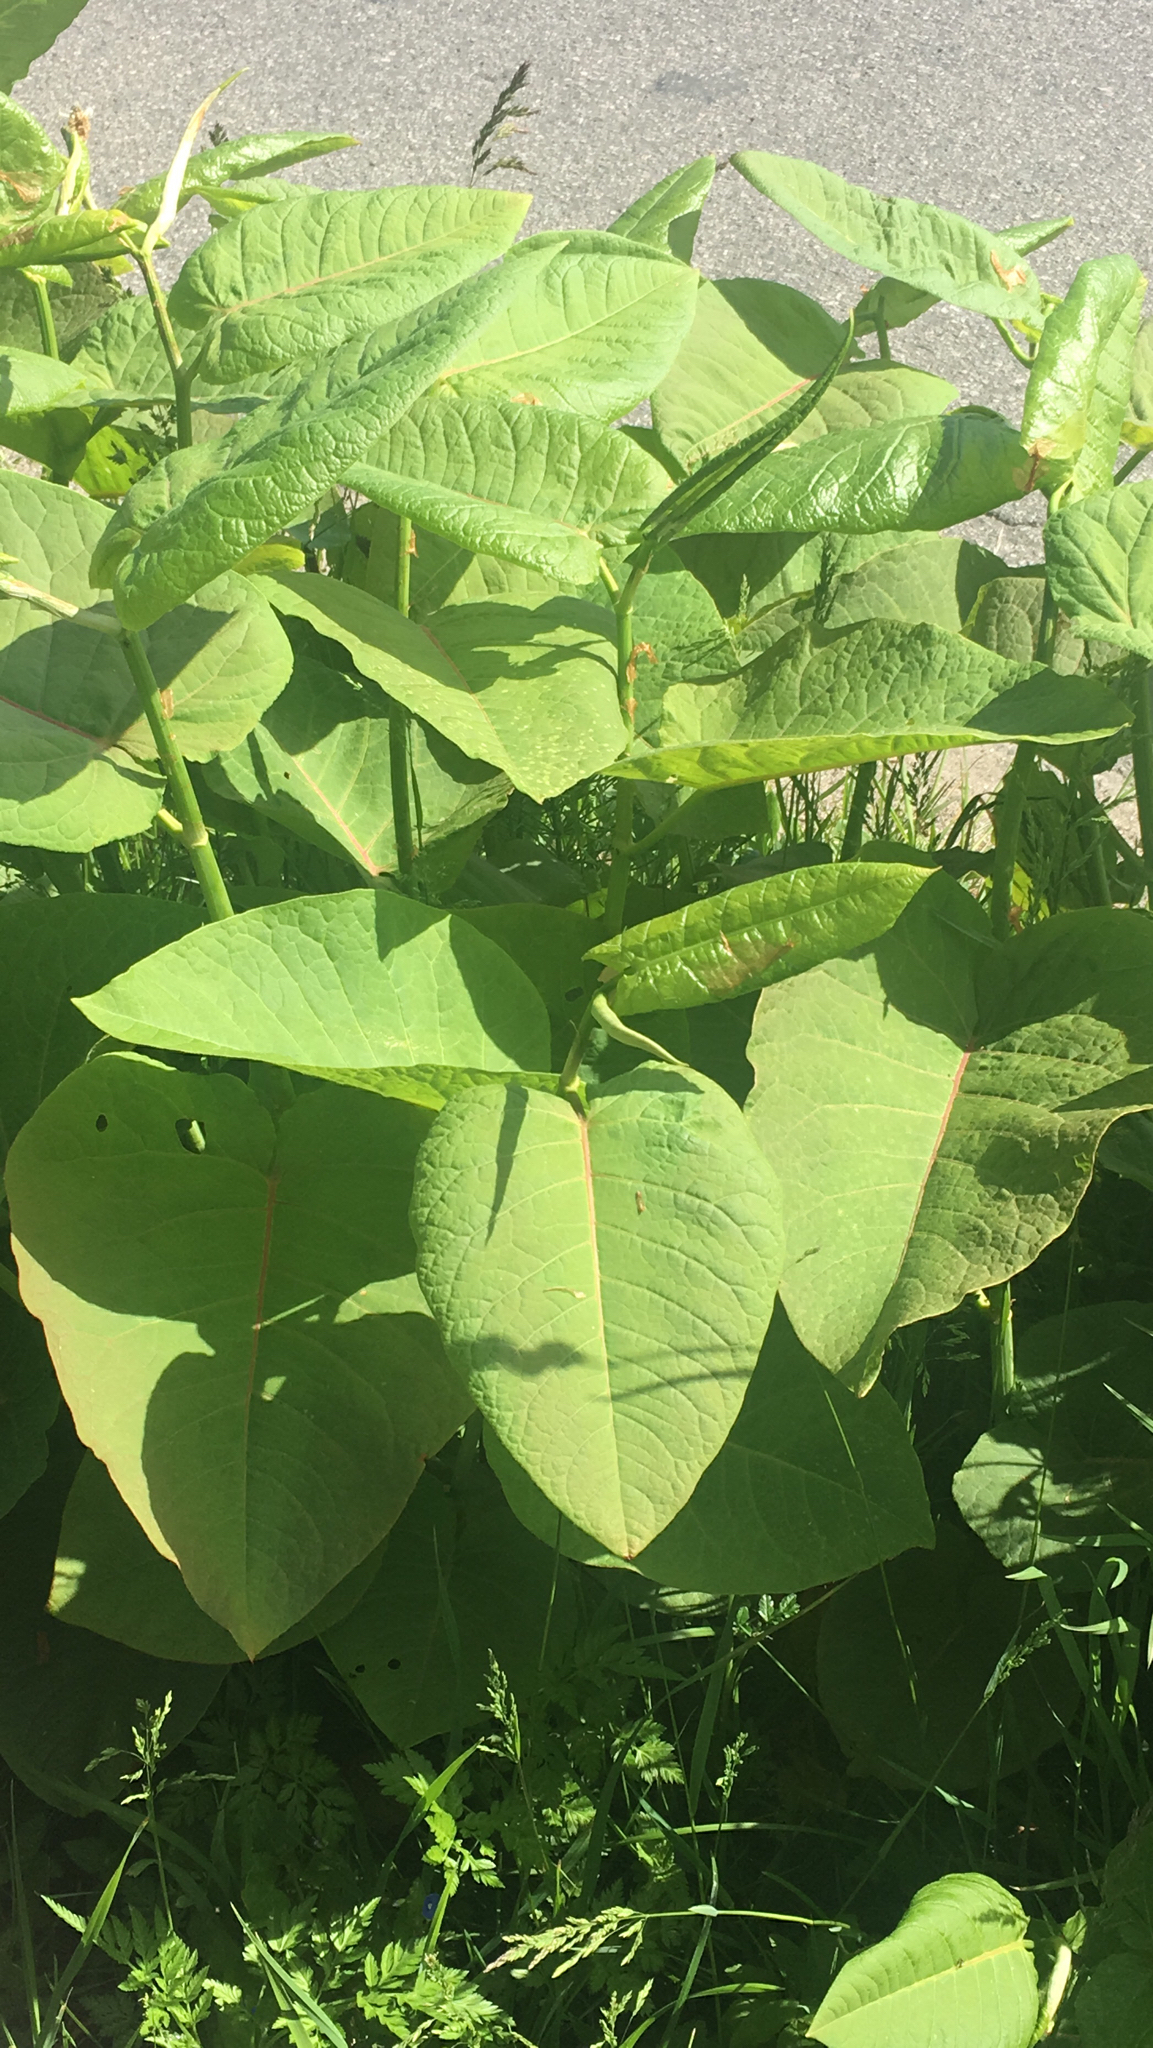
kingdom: Plantae
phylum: Tracheophyta
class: Magnoliopsida
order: Caryophyllales
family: Polygonaceae
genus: Reynoutria
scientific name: Reynoutria sachalinensis
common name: Giant knotweed
